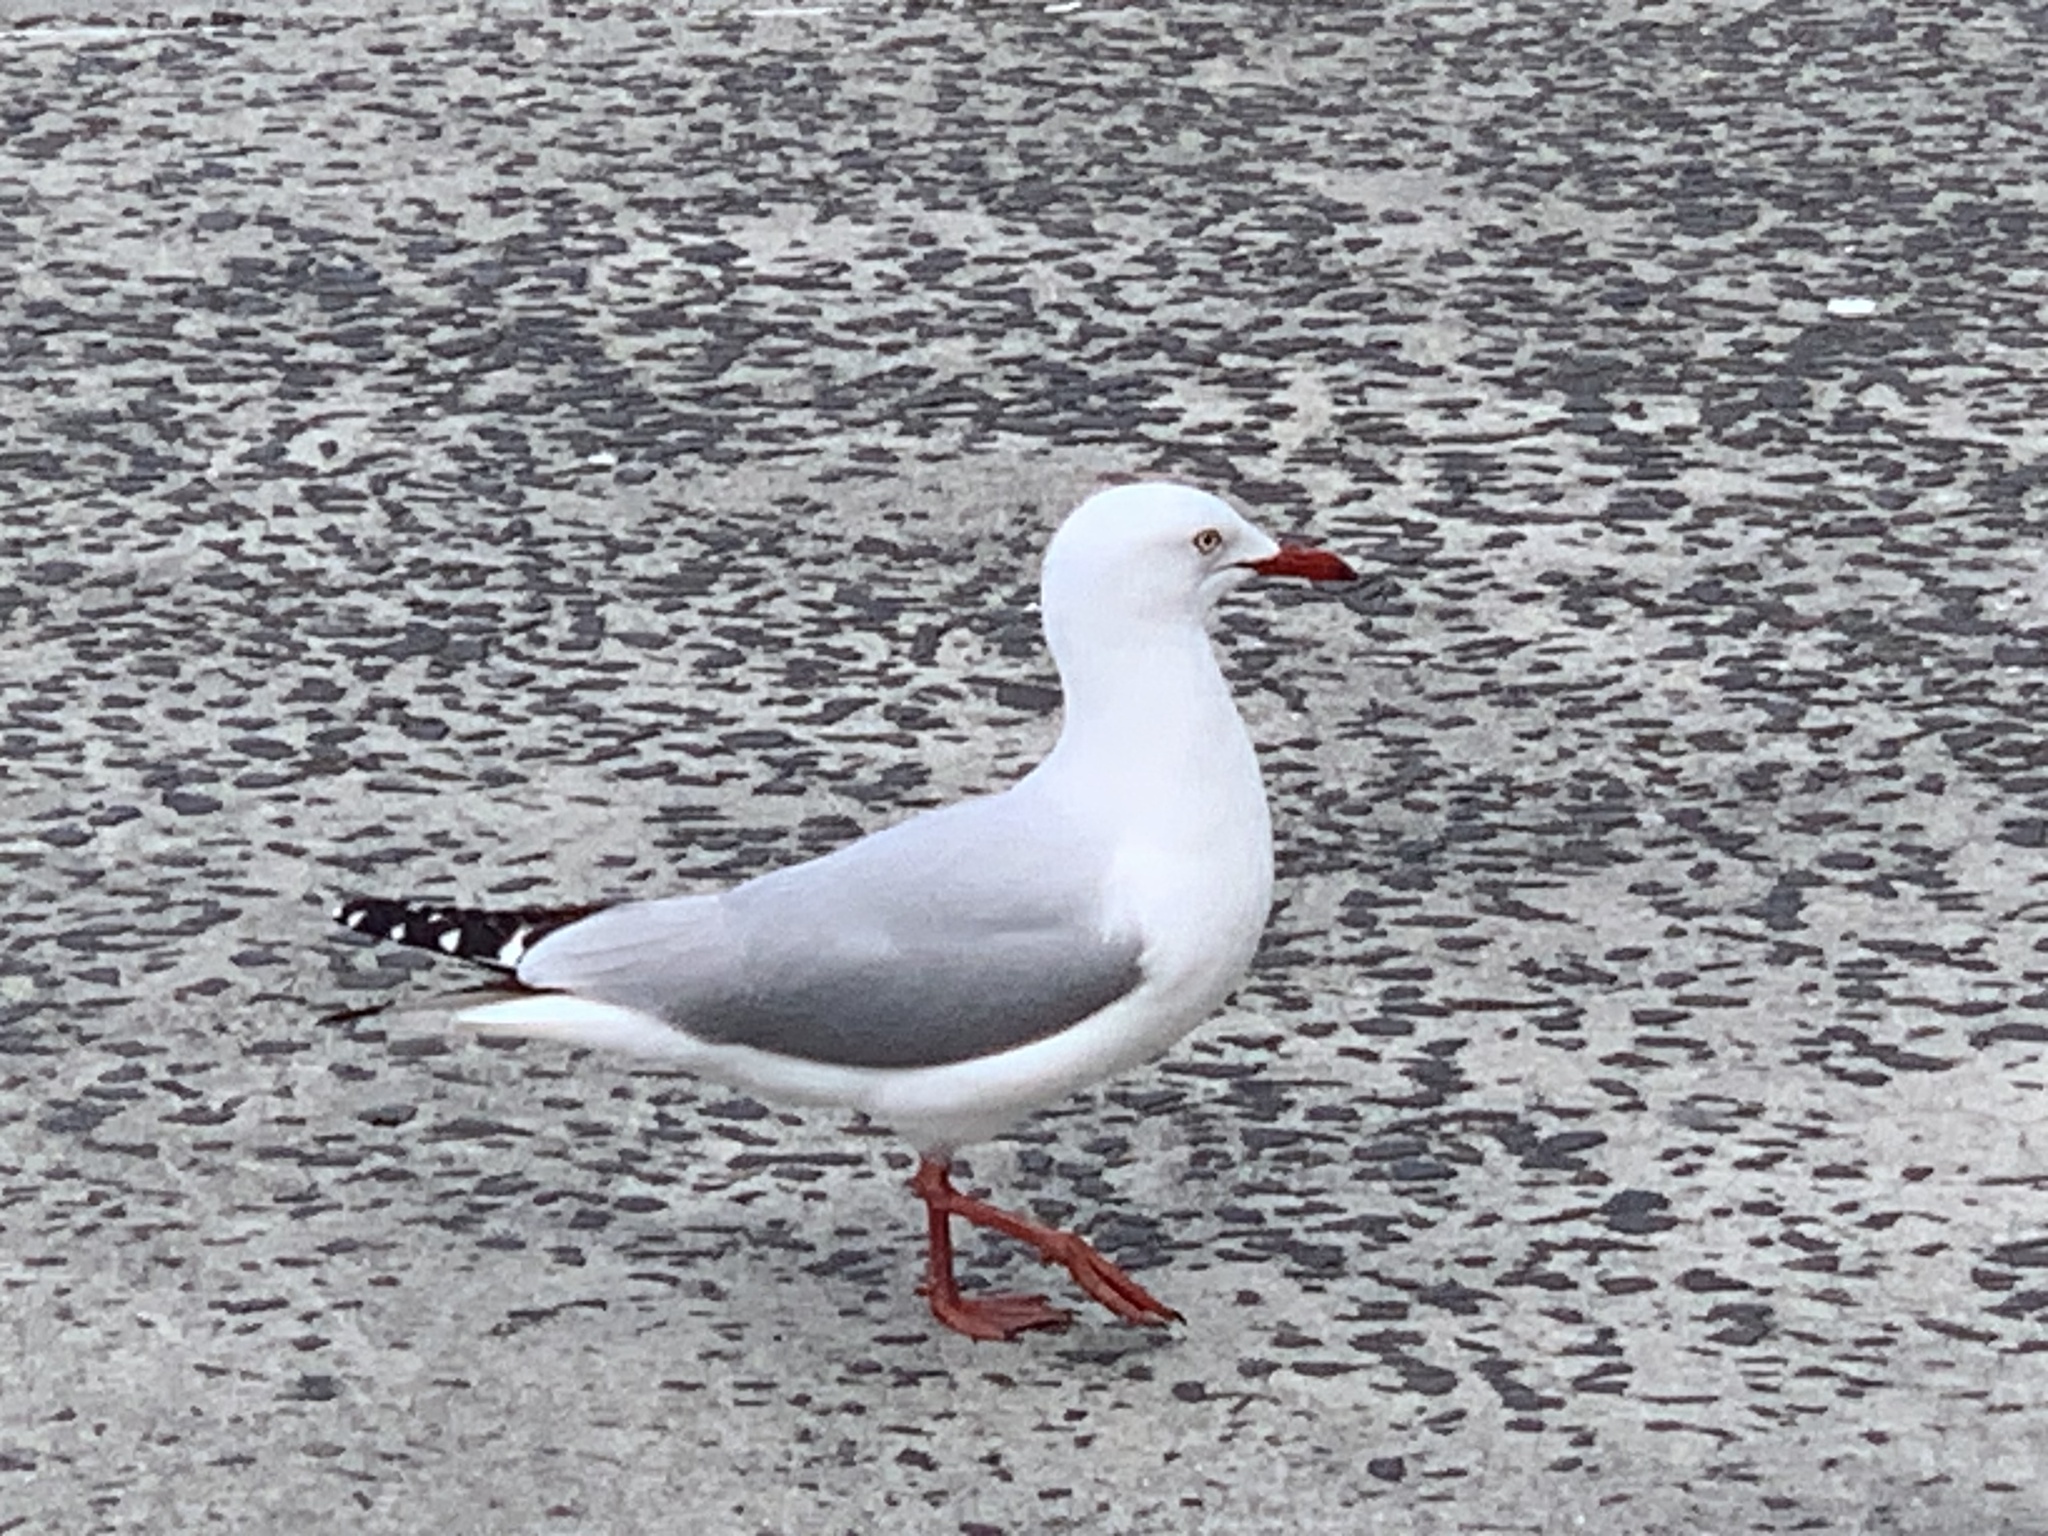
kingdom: Animalia
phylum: Chordata
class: Aves
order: Charadriiformes
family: Laridae
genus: Chroicocephalus
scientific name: Chroicocephalus novaehollandiae
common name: Silver gull
